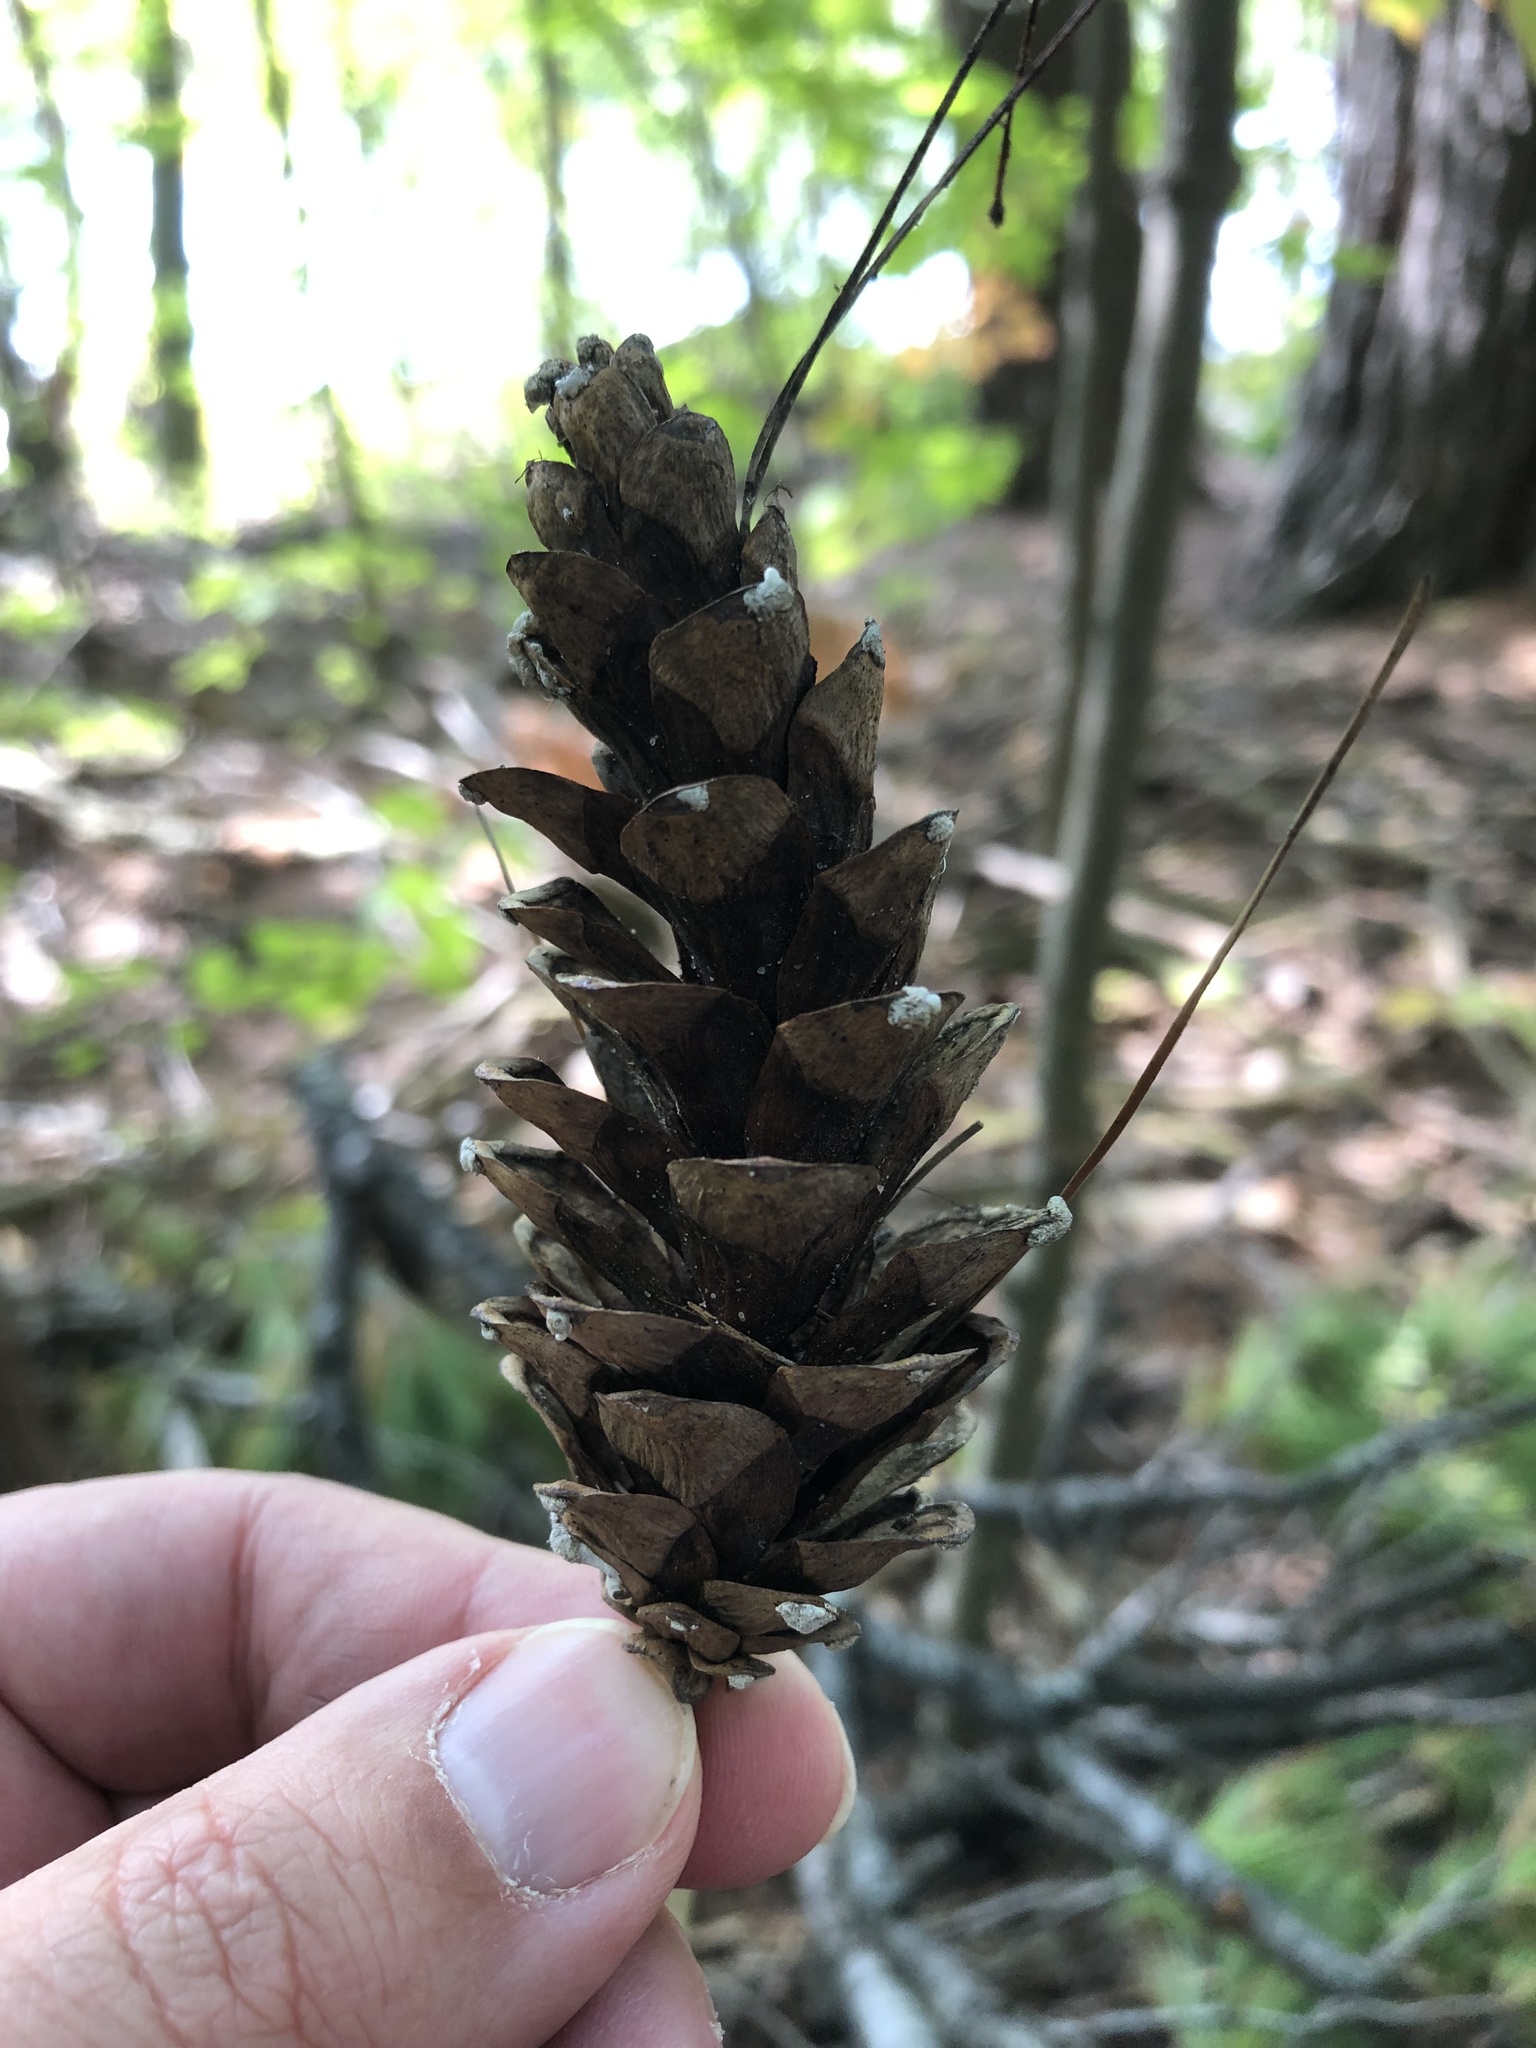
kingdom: Plantae
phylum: Tracheophyta
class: Pinopsida
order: Pinales
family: Pinaceae
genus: Pinus
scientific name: Pinus strobus
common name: Weymouth pine
